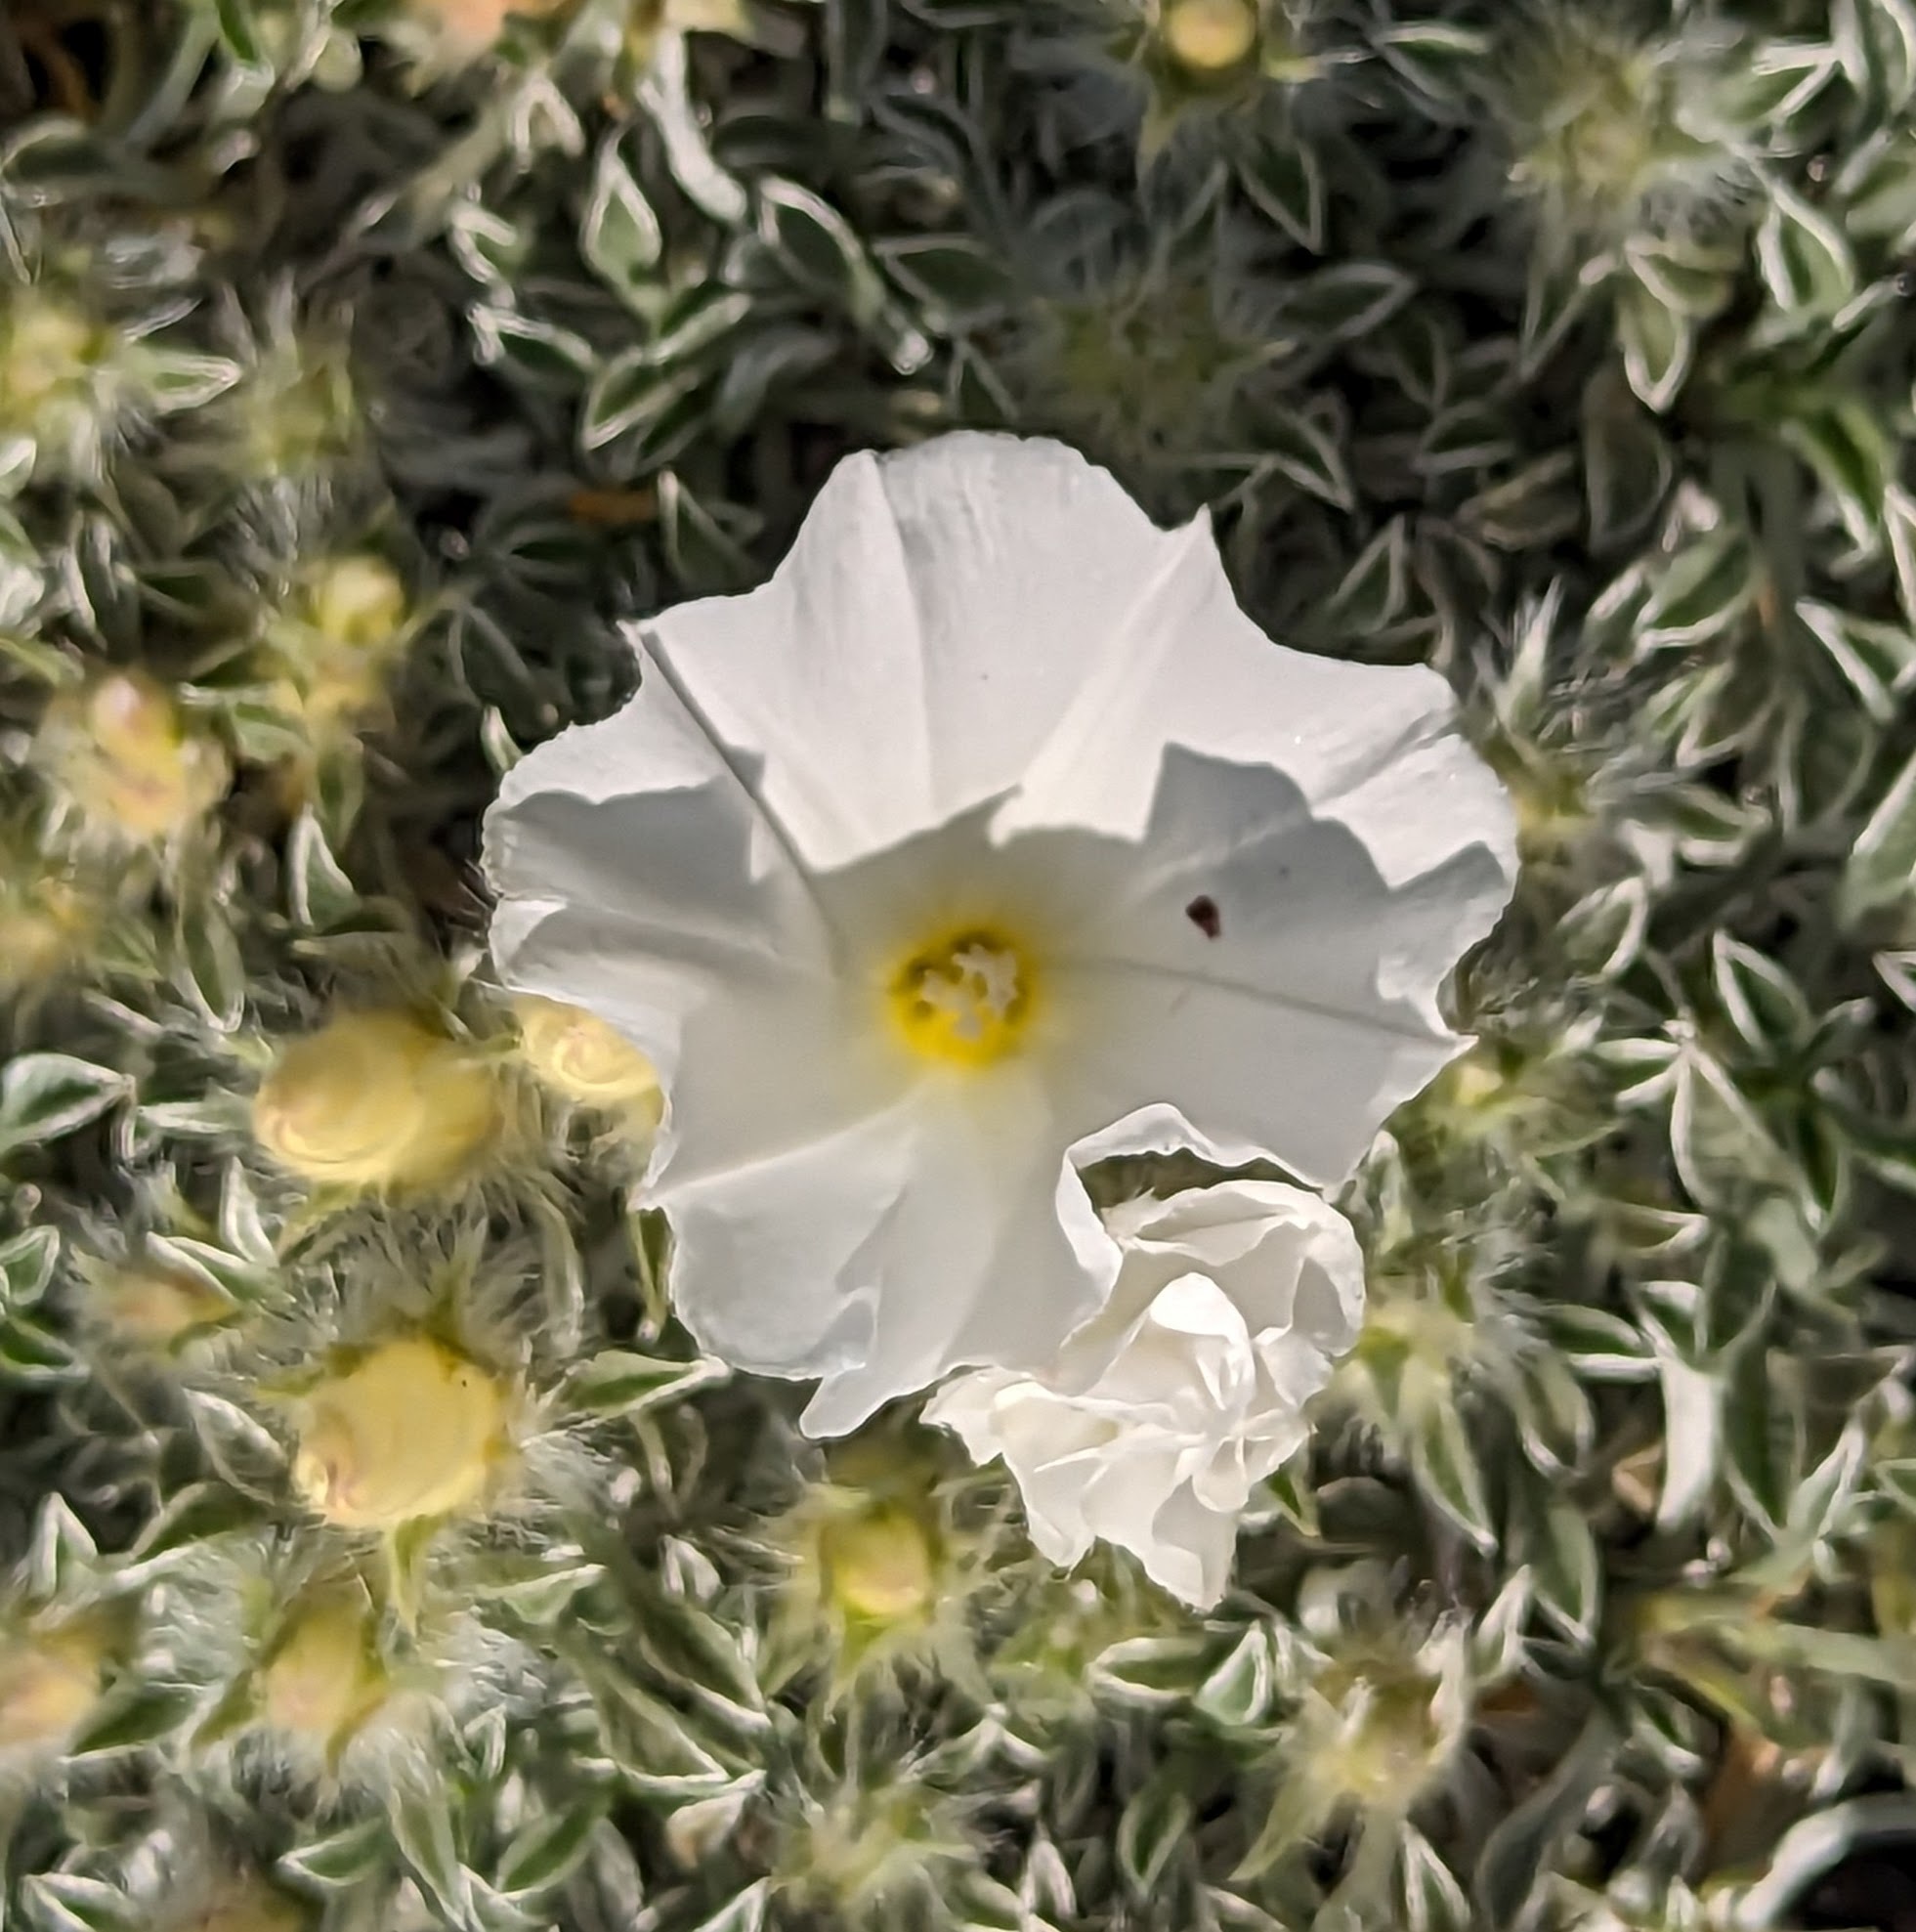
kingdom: Plantae
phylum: Tracheophyta
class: Magnoliopsida
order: Solanales
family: Convolvulaceae
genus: Convolvulus
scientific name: Convolvulus boissieri
